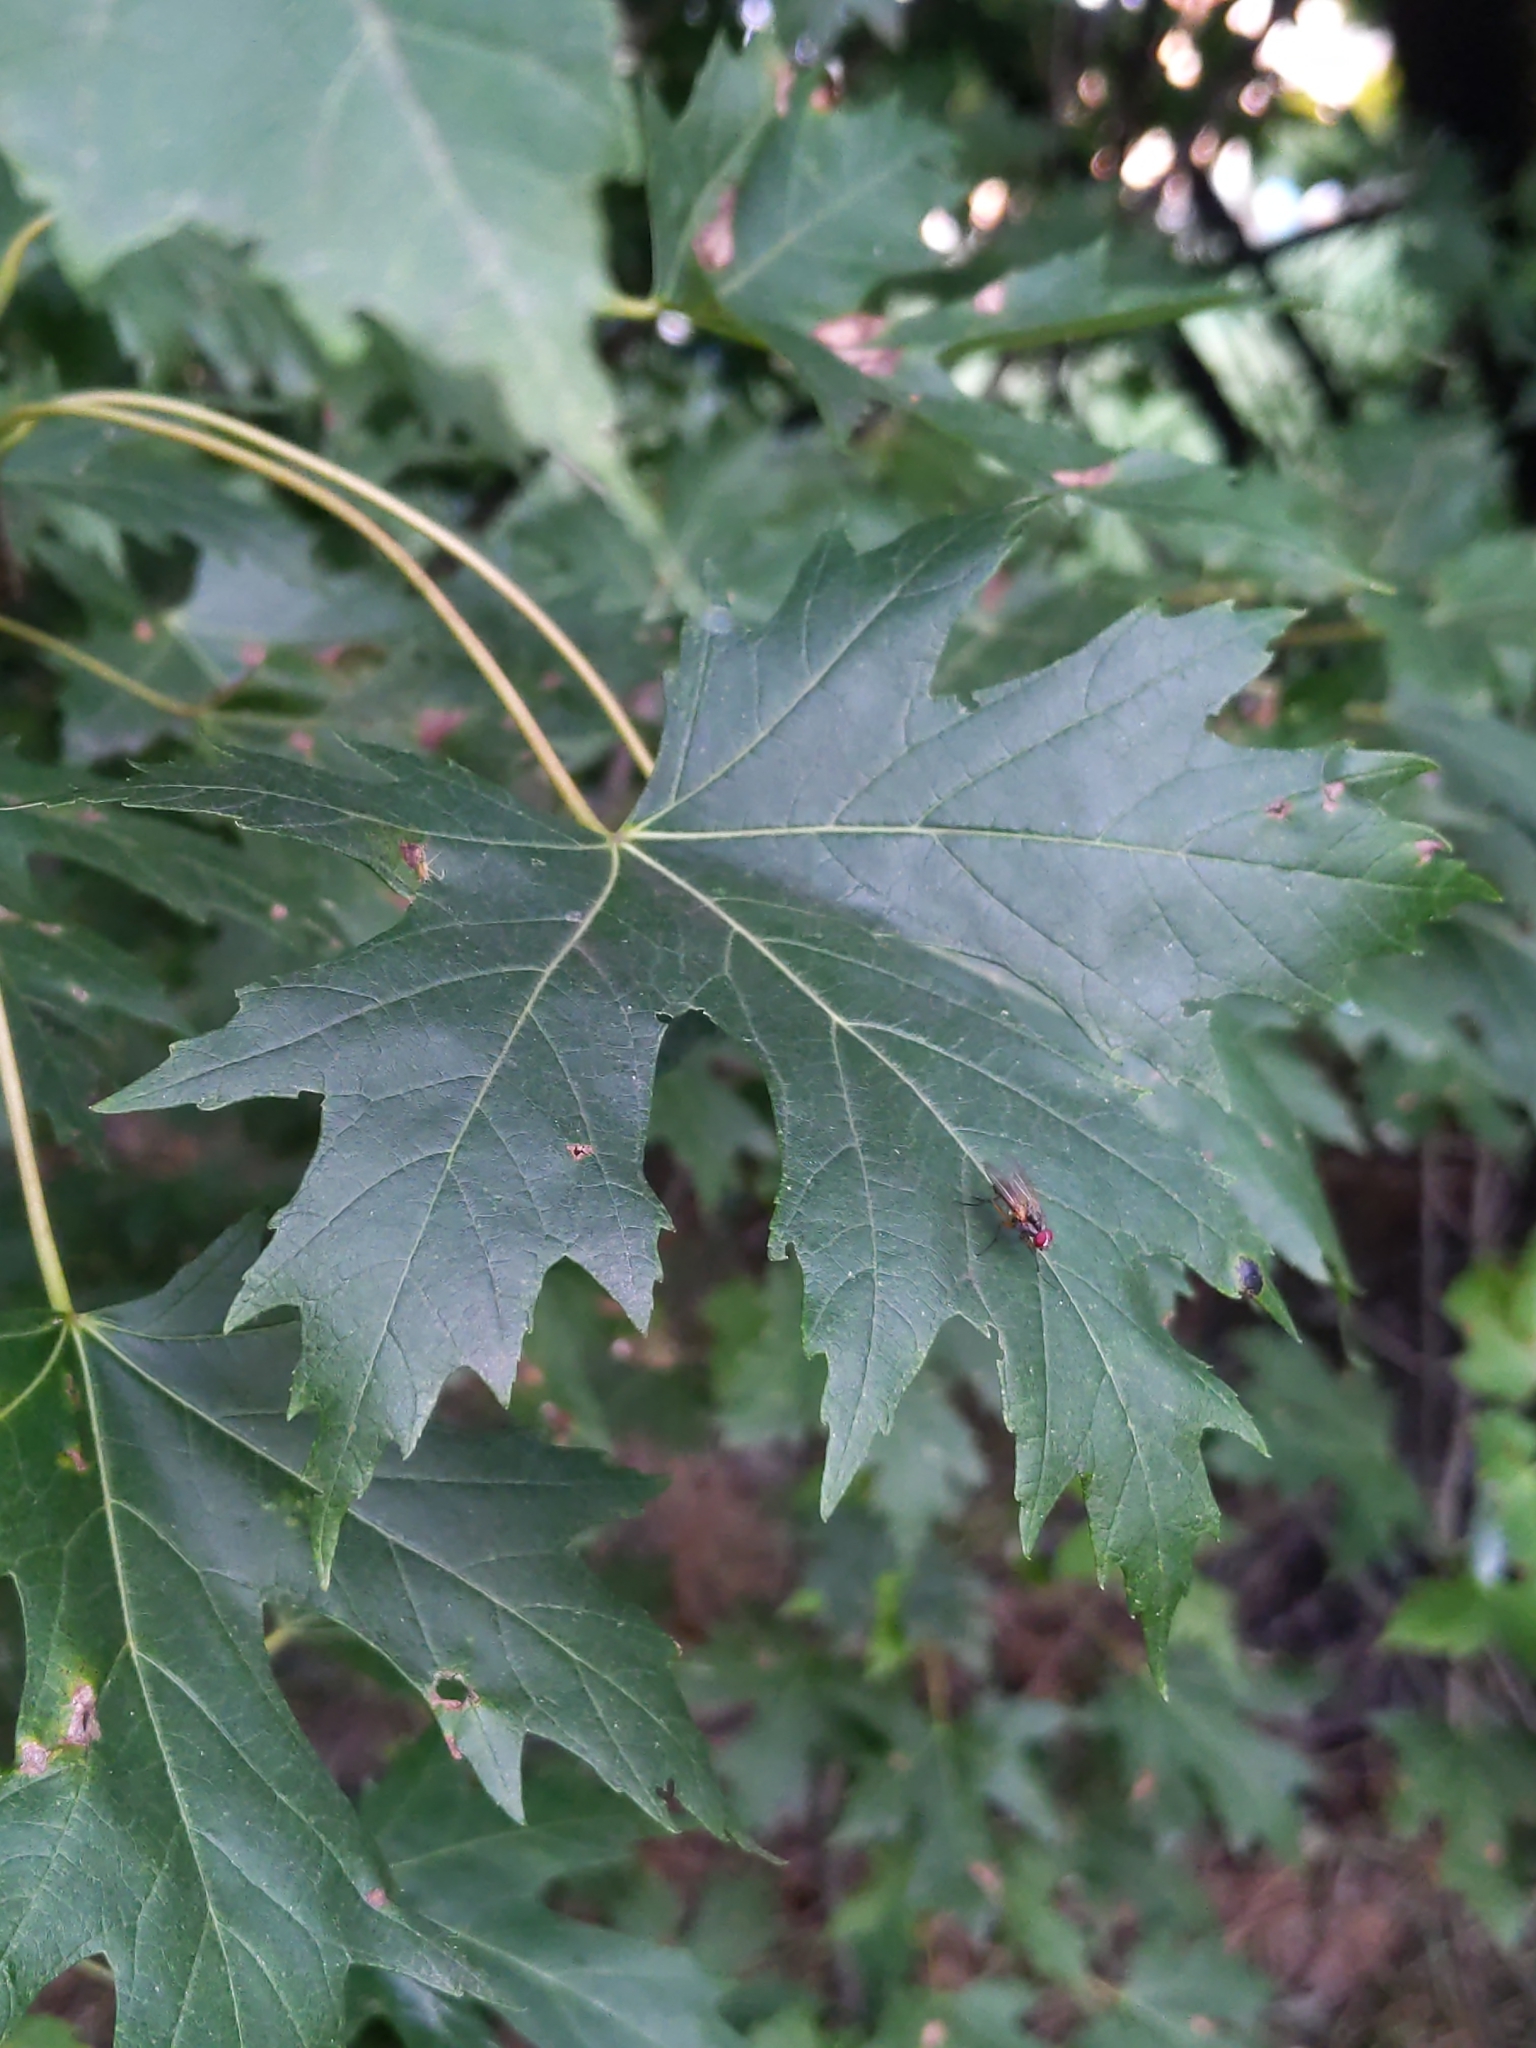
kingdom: Plantae
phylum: Tracheophyta
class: Magnoliopsida
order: Sapindales
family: Sapindaceae
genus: Acer
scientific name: Acer saccharinum
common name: Silver maple
